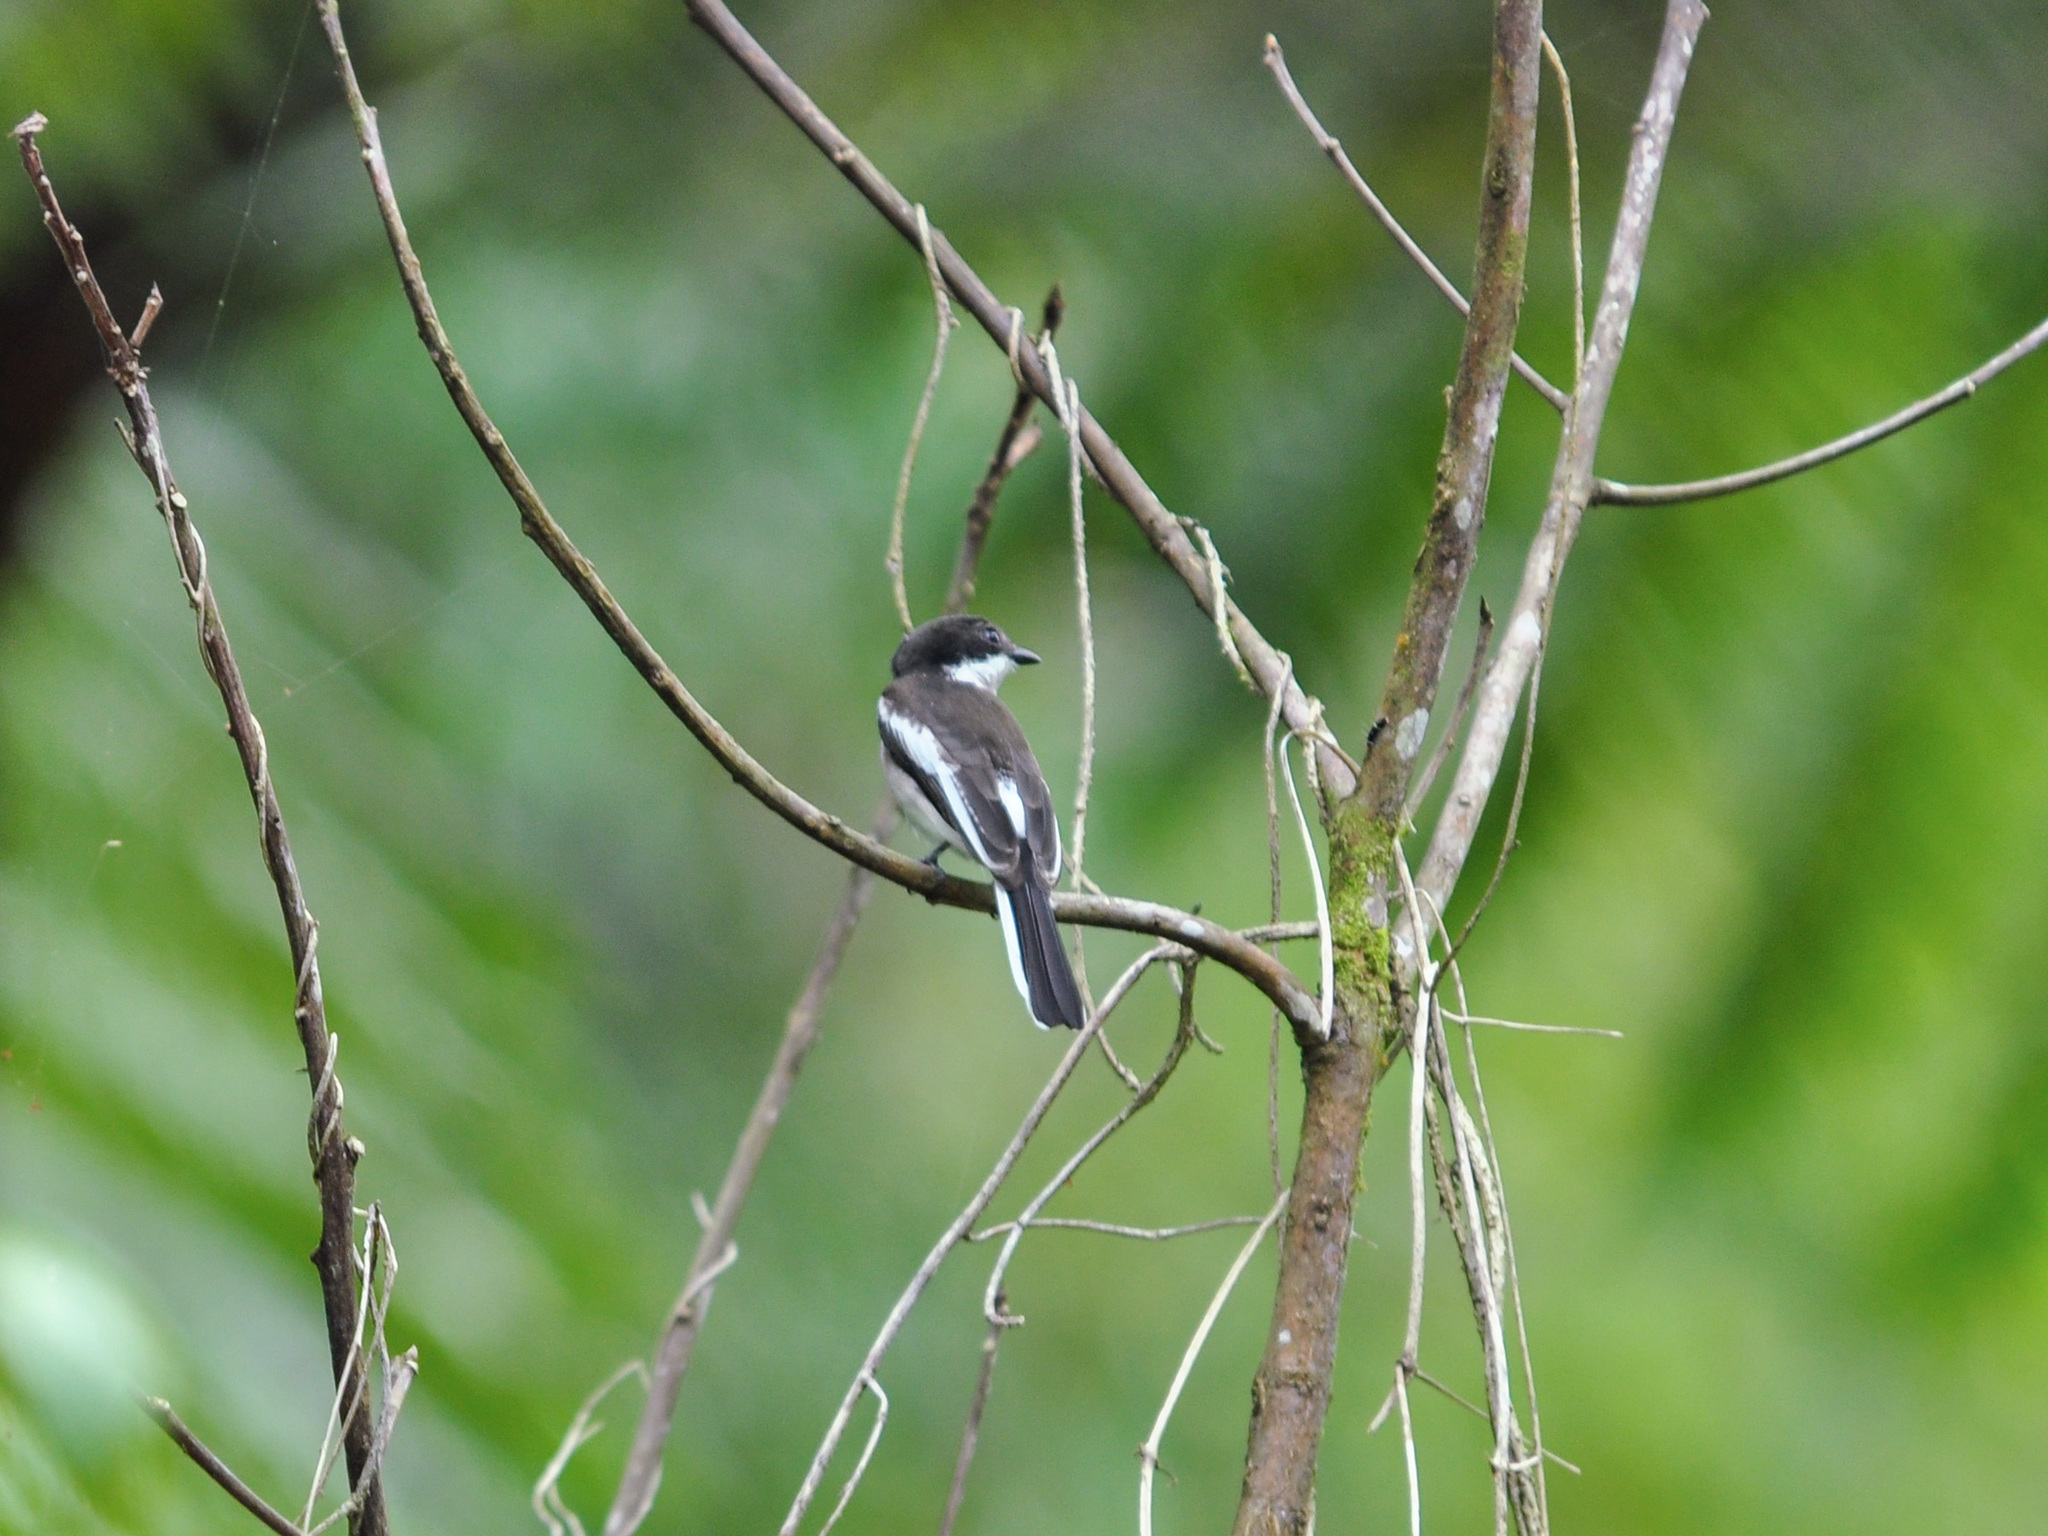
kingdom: Animalia
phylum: Chordata
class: Aves
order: Passeriformes
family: Tephrodornithidae
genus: Hemipus
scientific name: Hemipus picatus
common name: Bar-winged flycatcher-shrike
